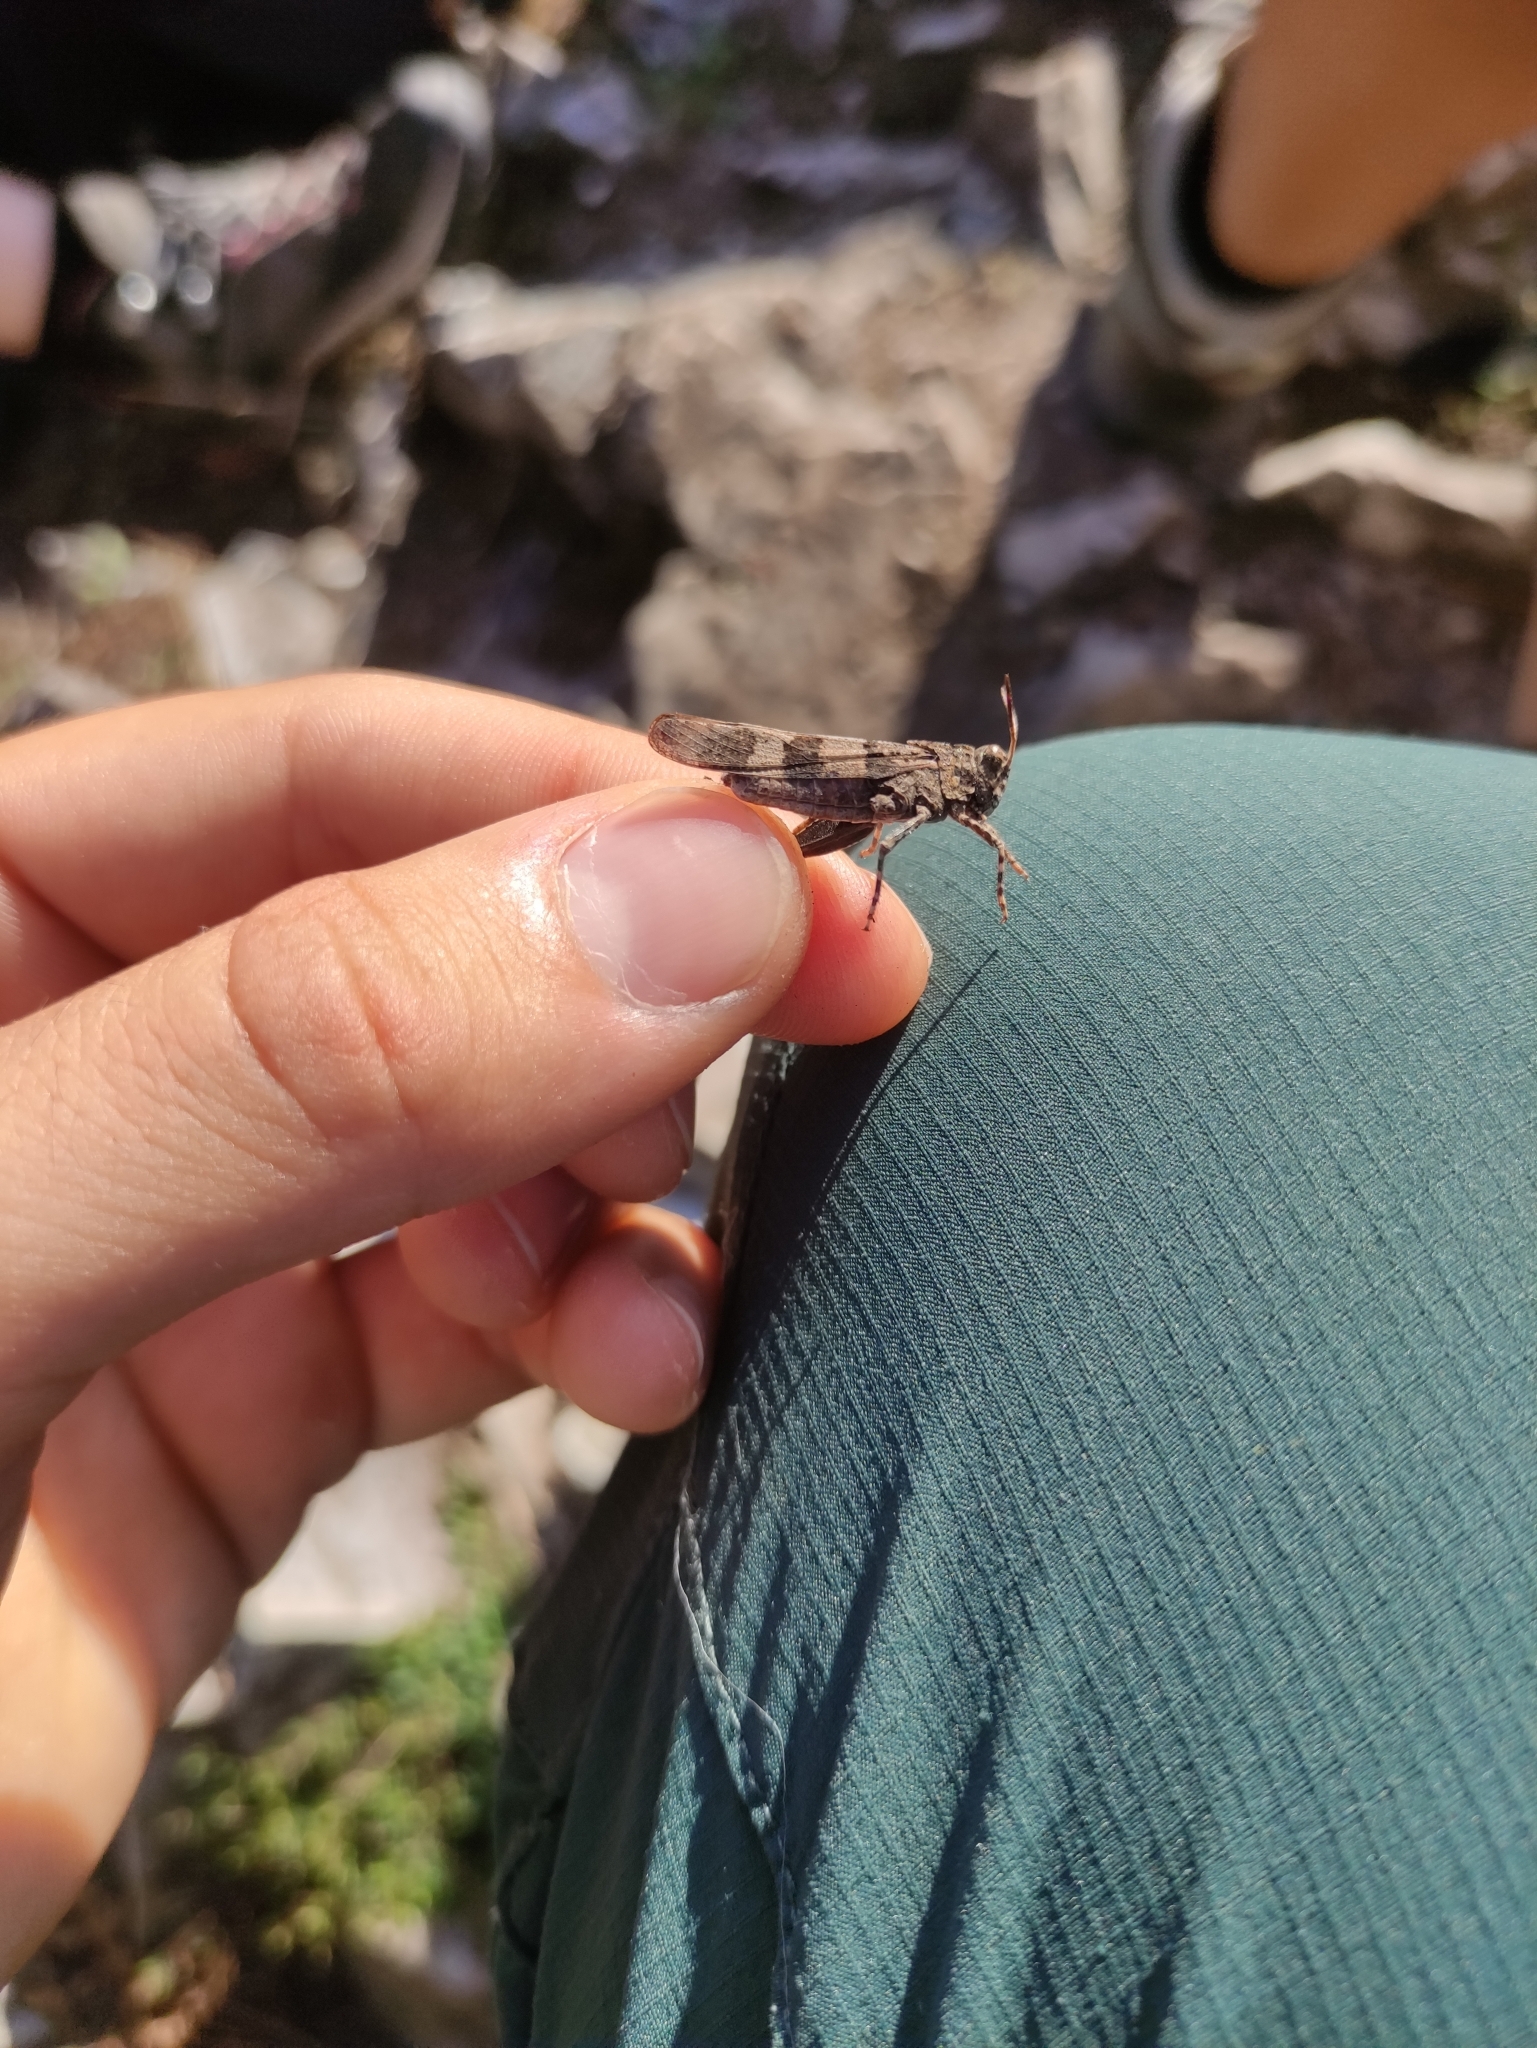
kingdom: Animalia
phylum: Arthropoda
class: Insecta
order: Orthoptera
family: Acrididae
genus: Oedipoda
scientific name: Oedipoda caerulescens
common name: Blue-winged grasshopper
